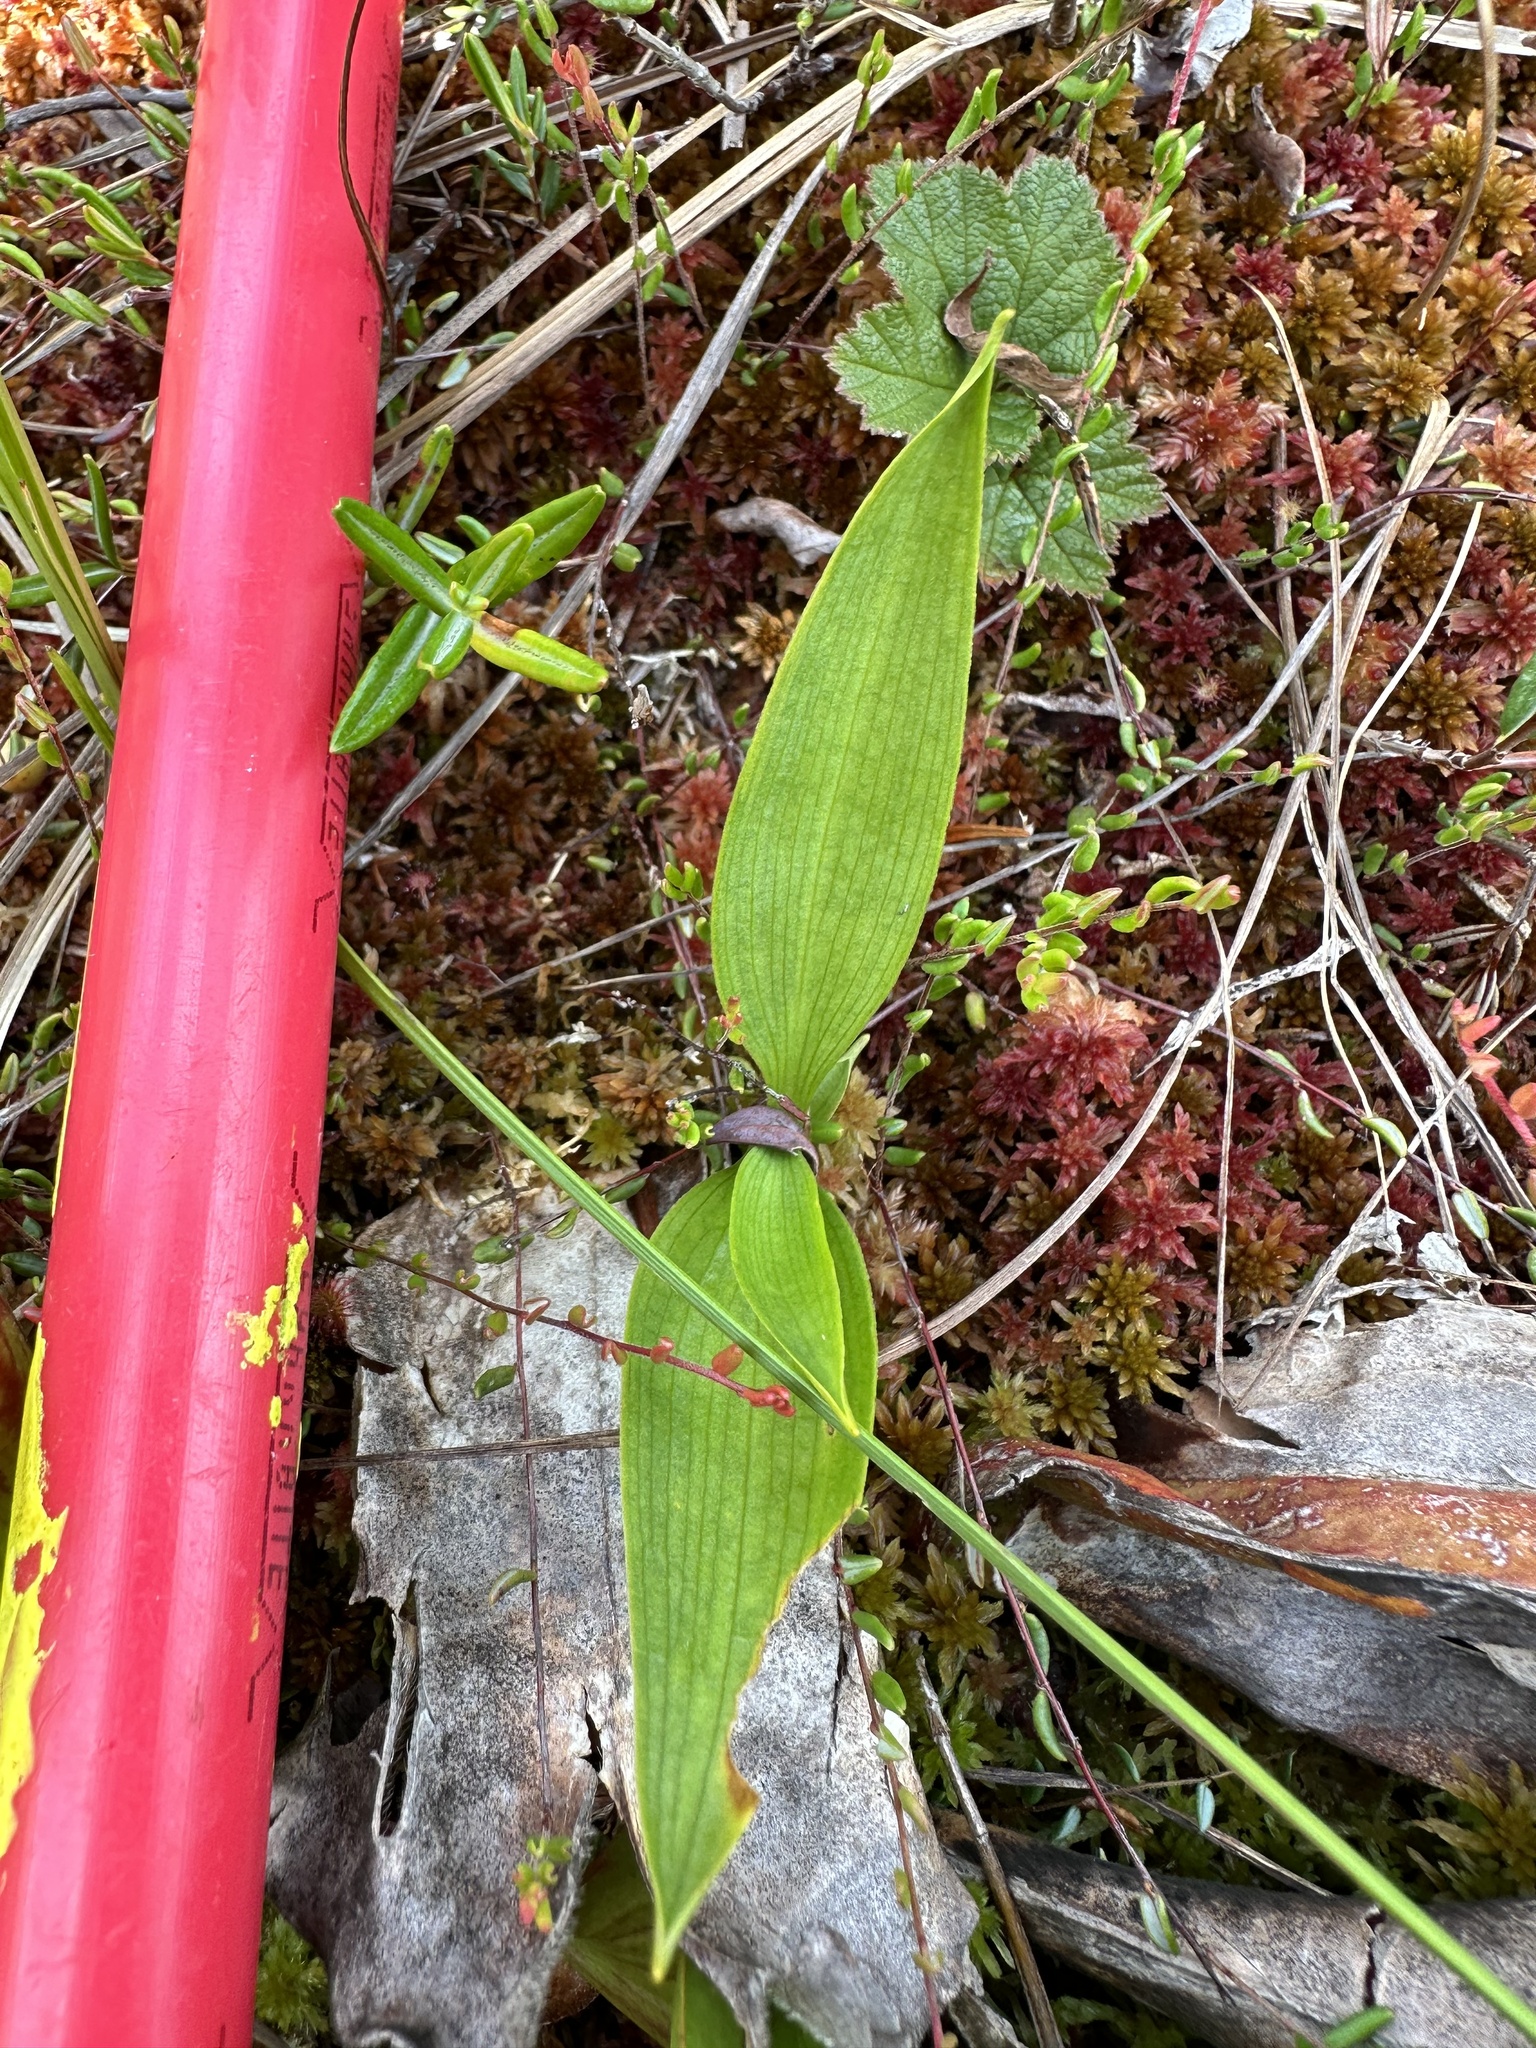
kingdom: Plantae
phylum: Tracheophyta
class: Liliopsida
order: Asparagales
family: Asparagaceae
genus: Maianthemum
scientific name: Maianthemum trifolium
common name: Swamp false solomon's seal
